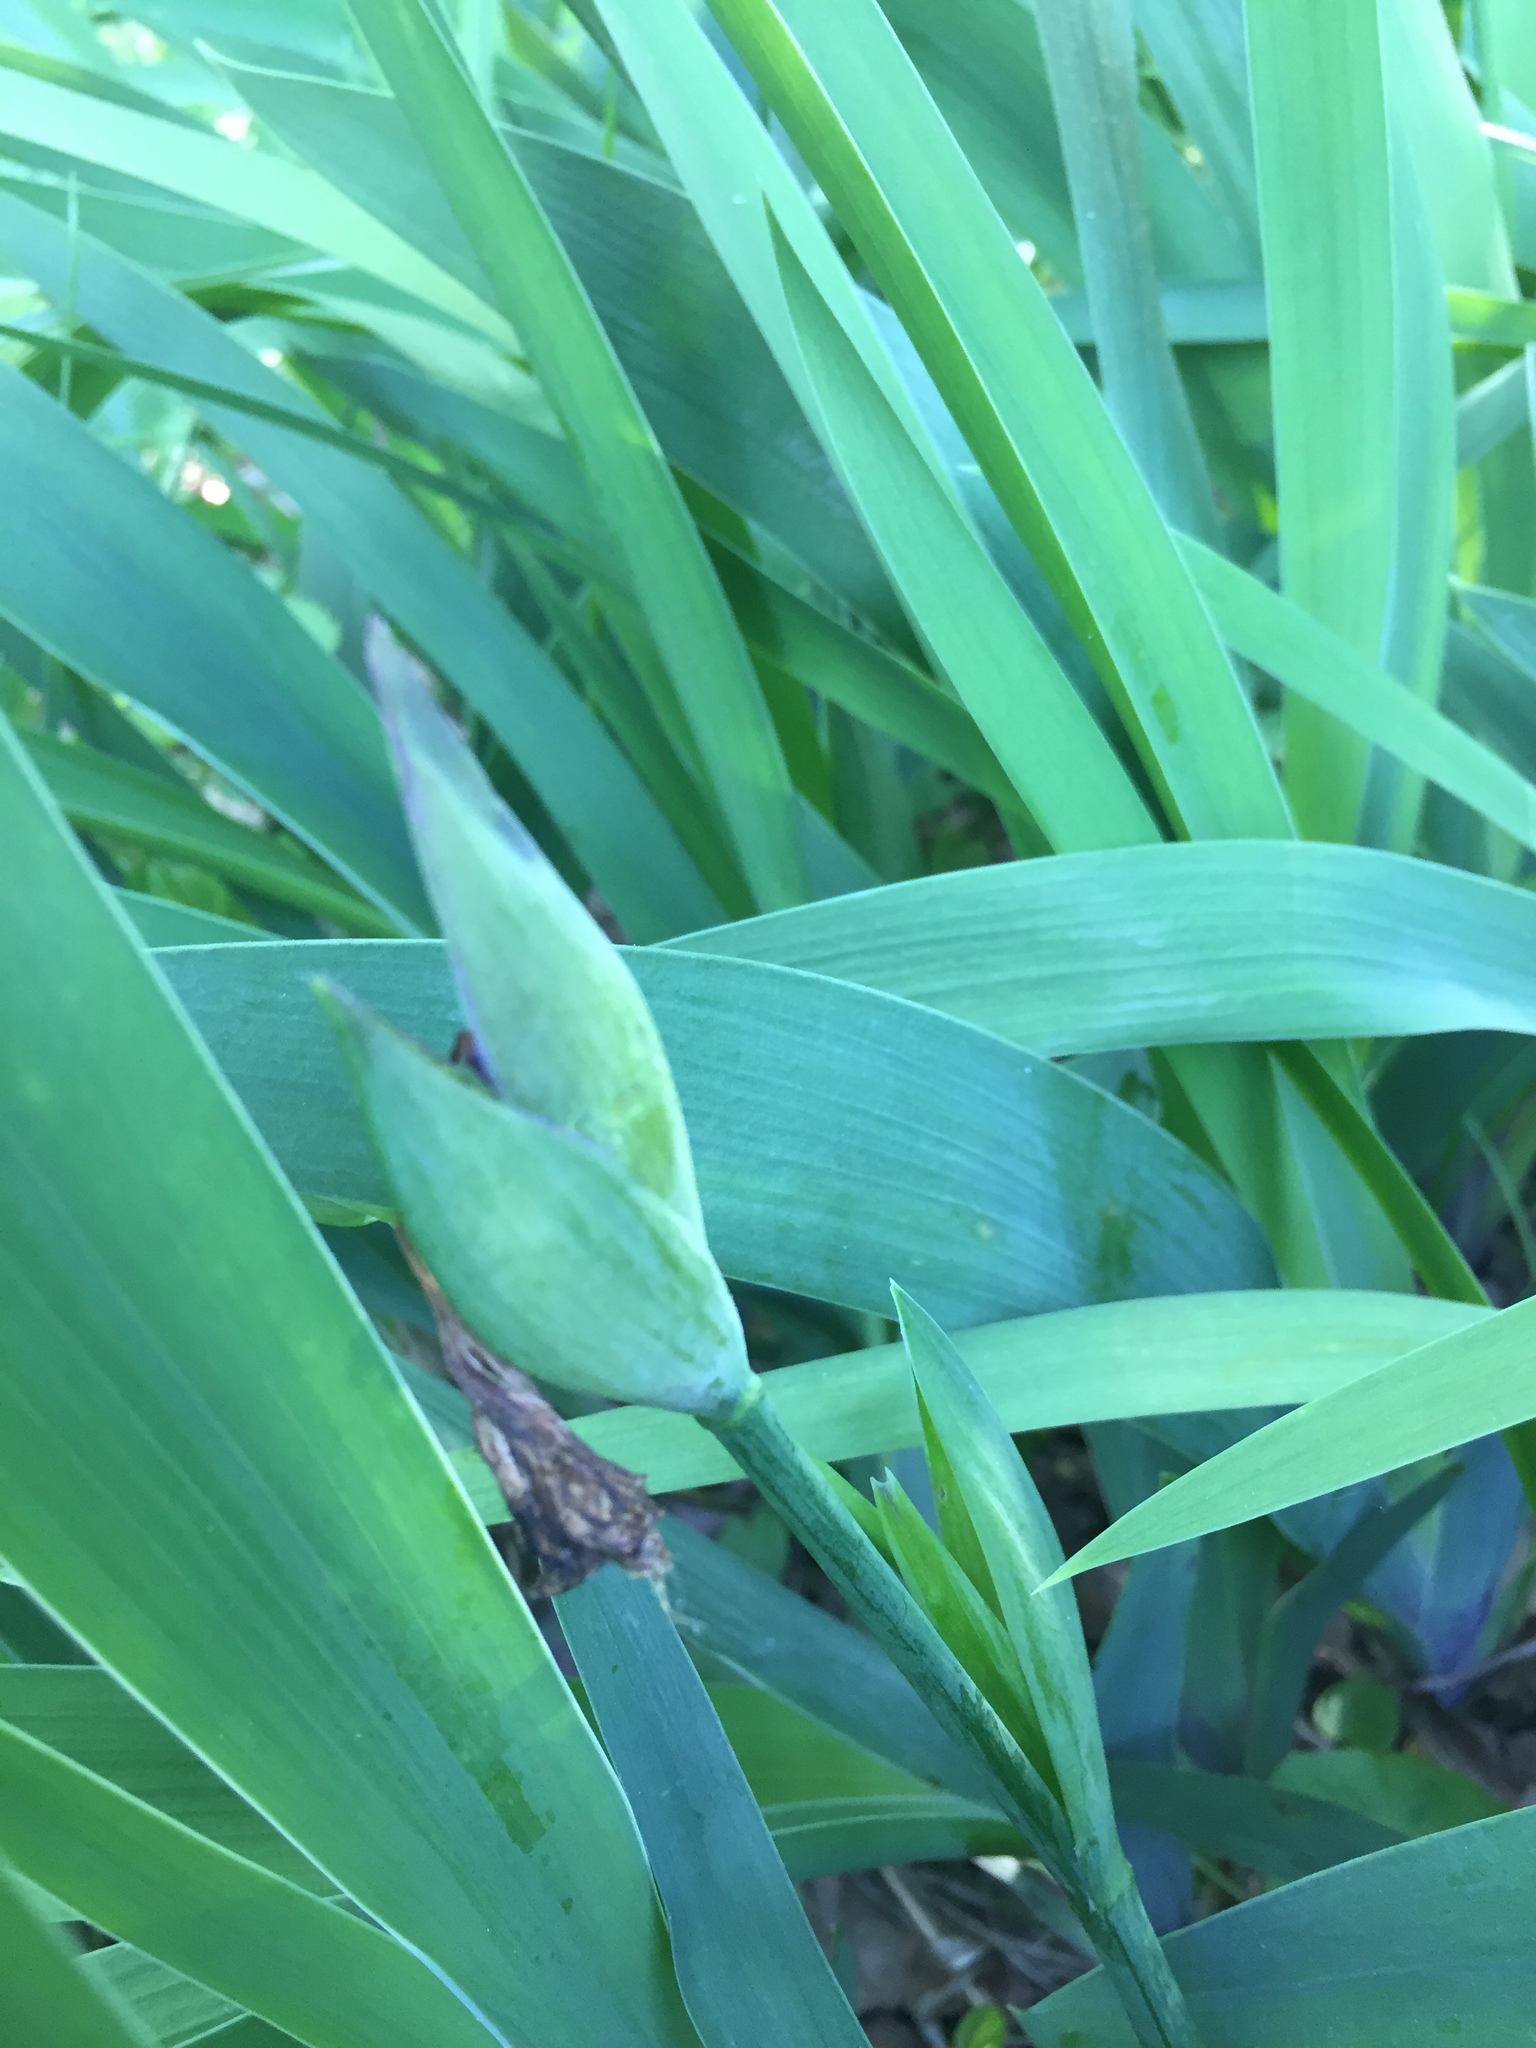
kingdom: Plantae
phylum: Tracheophyta
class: Liliopsida
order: Asparagales
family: Iridaceae
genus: Iris
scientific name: Iris aphylla
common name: Stool iris
